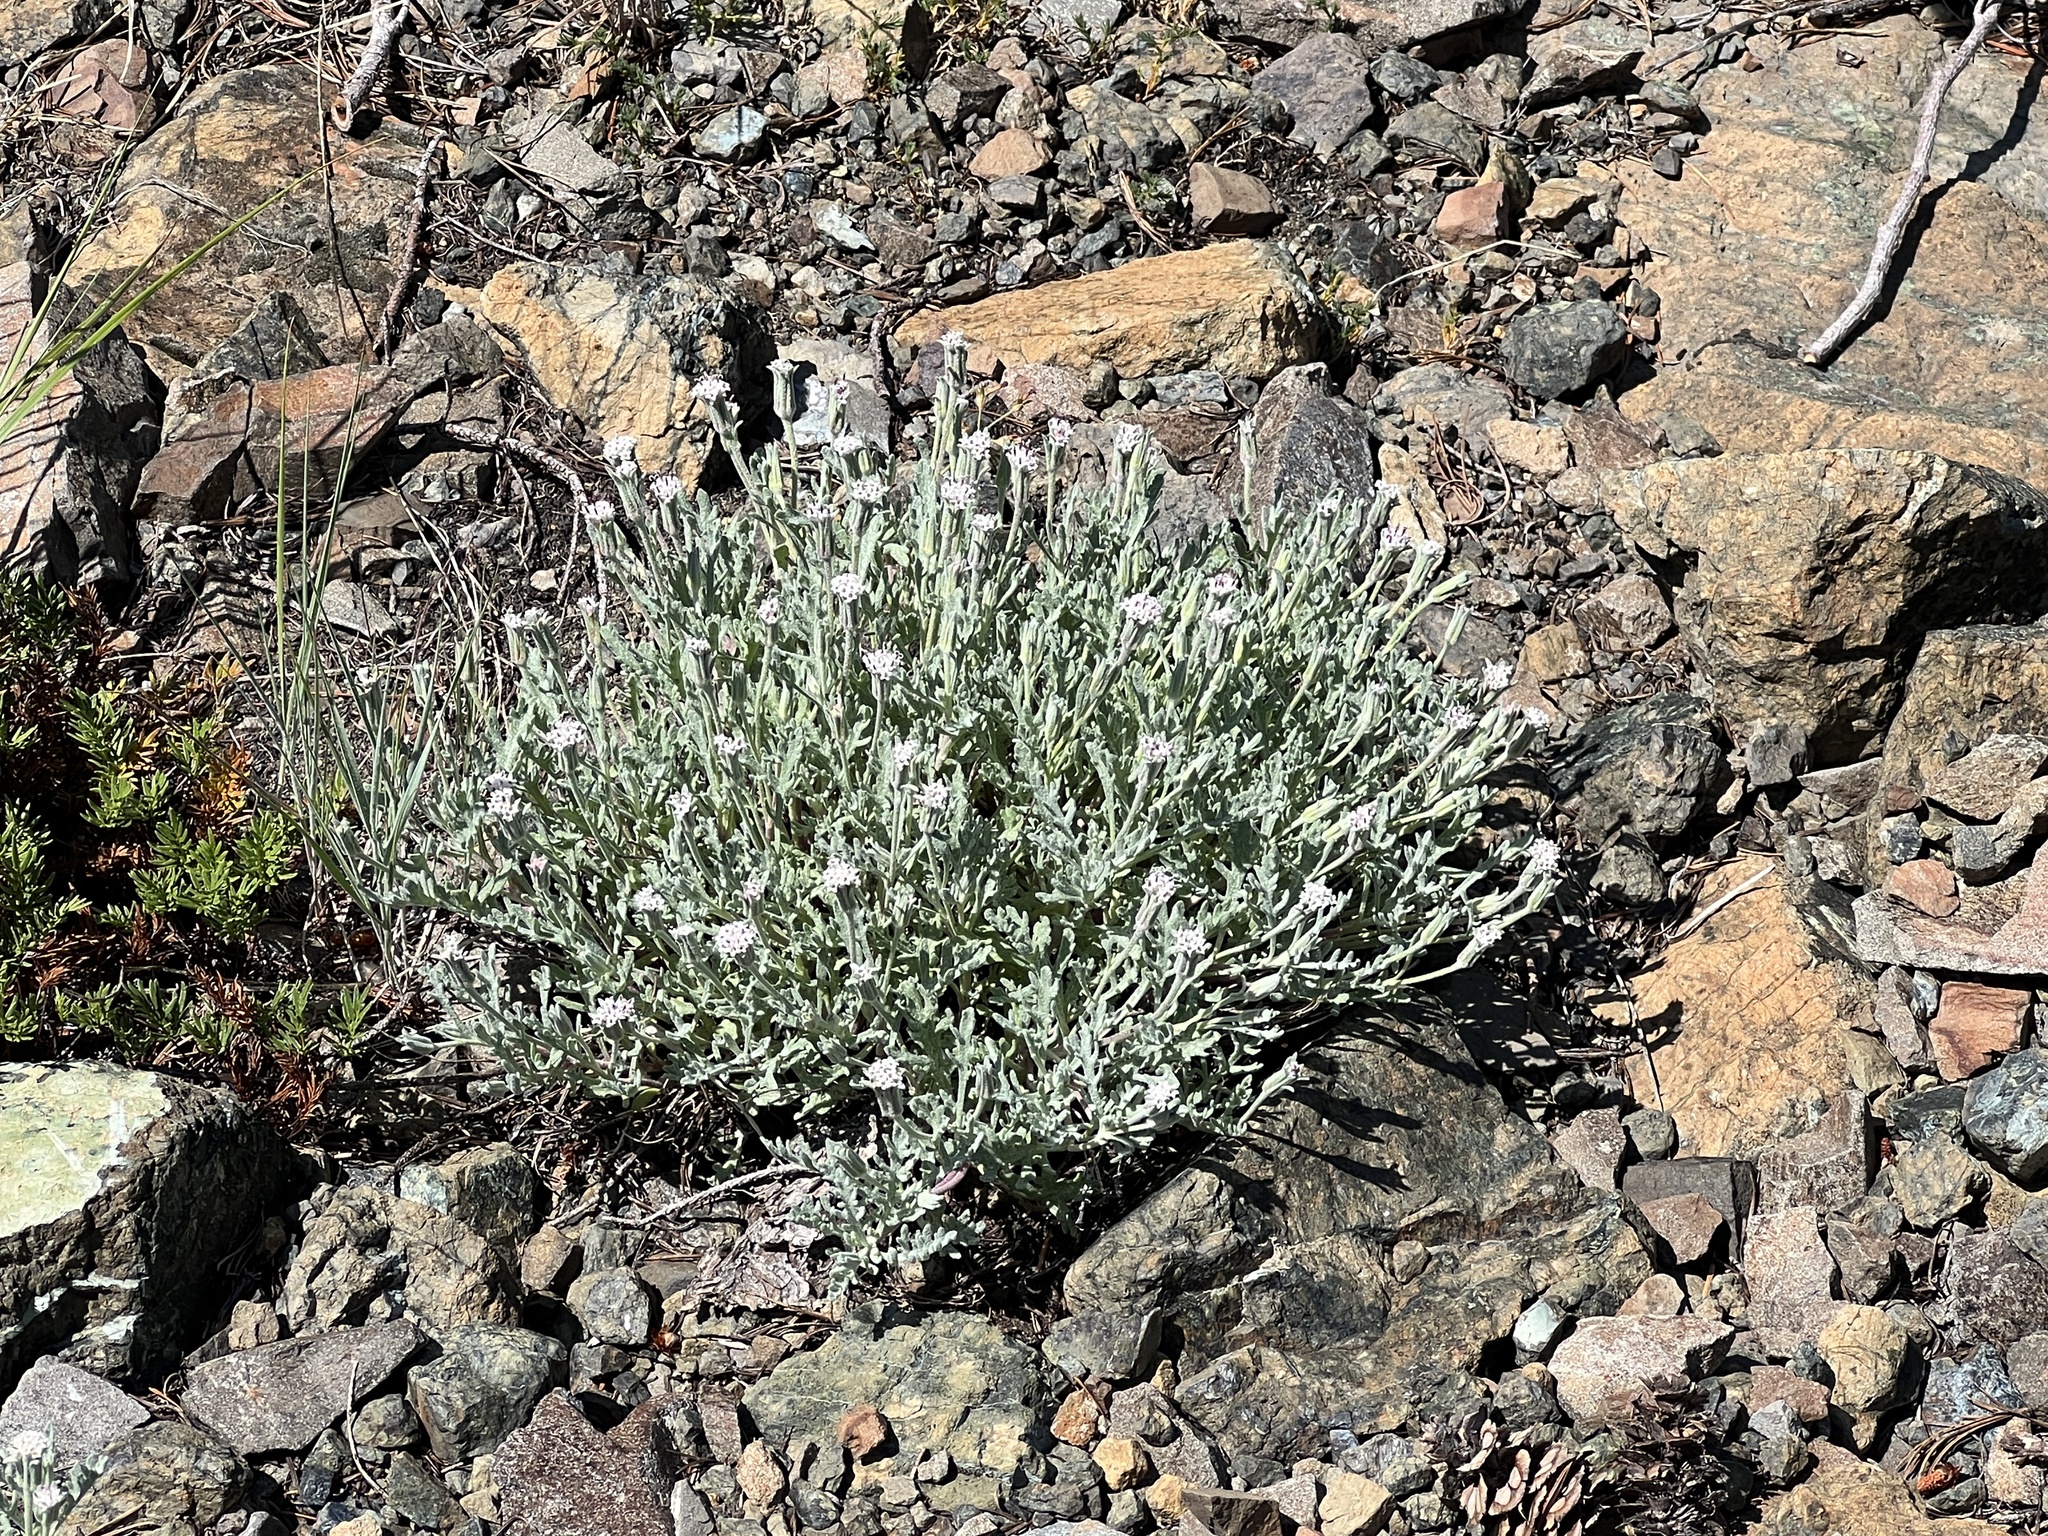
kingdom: Plantae
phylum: Tracheophyta
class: Magnoliopsida
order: Asterales
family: Asteraceae
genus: Chaenactis
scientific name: Chaenactis thompsonii
